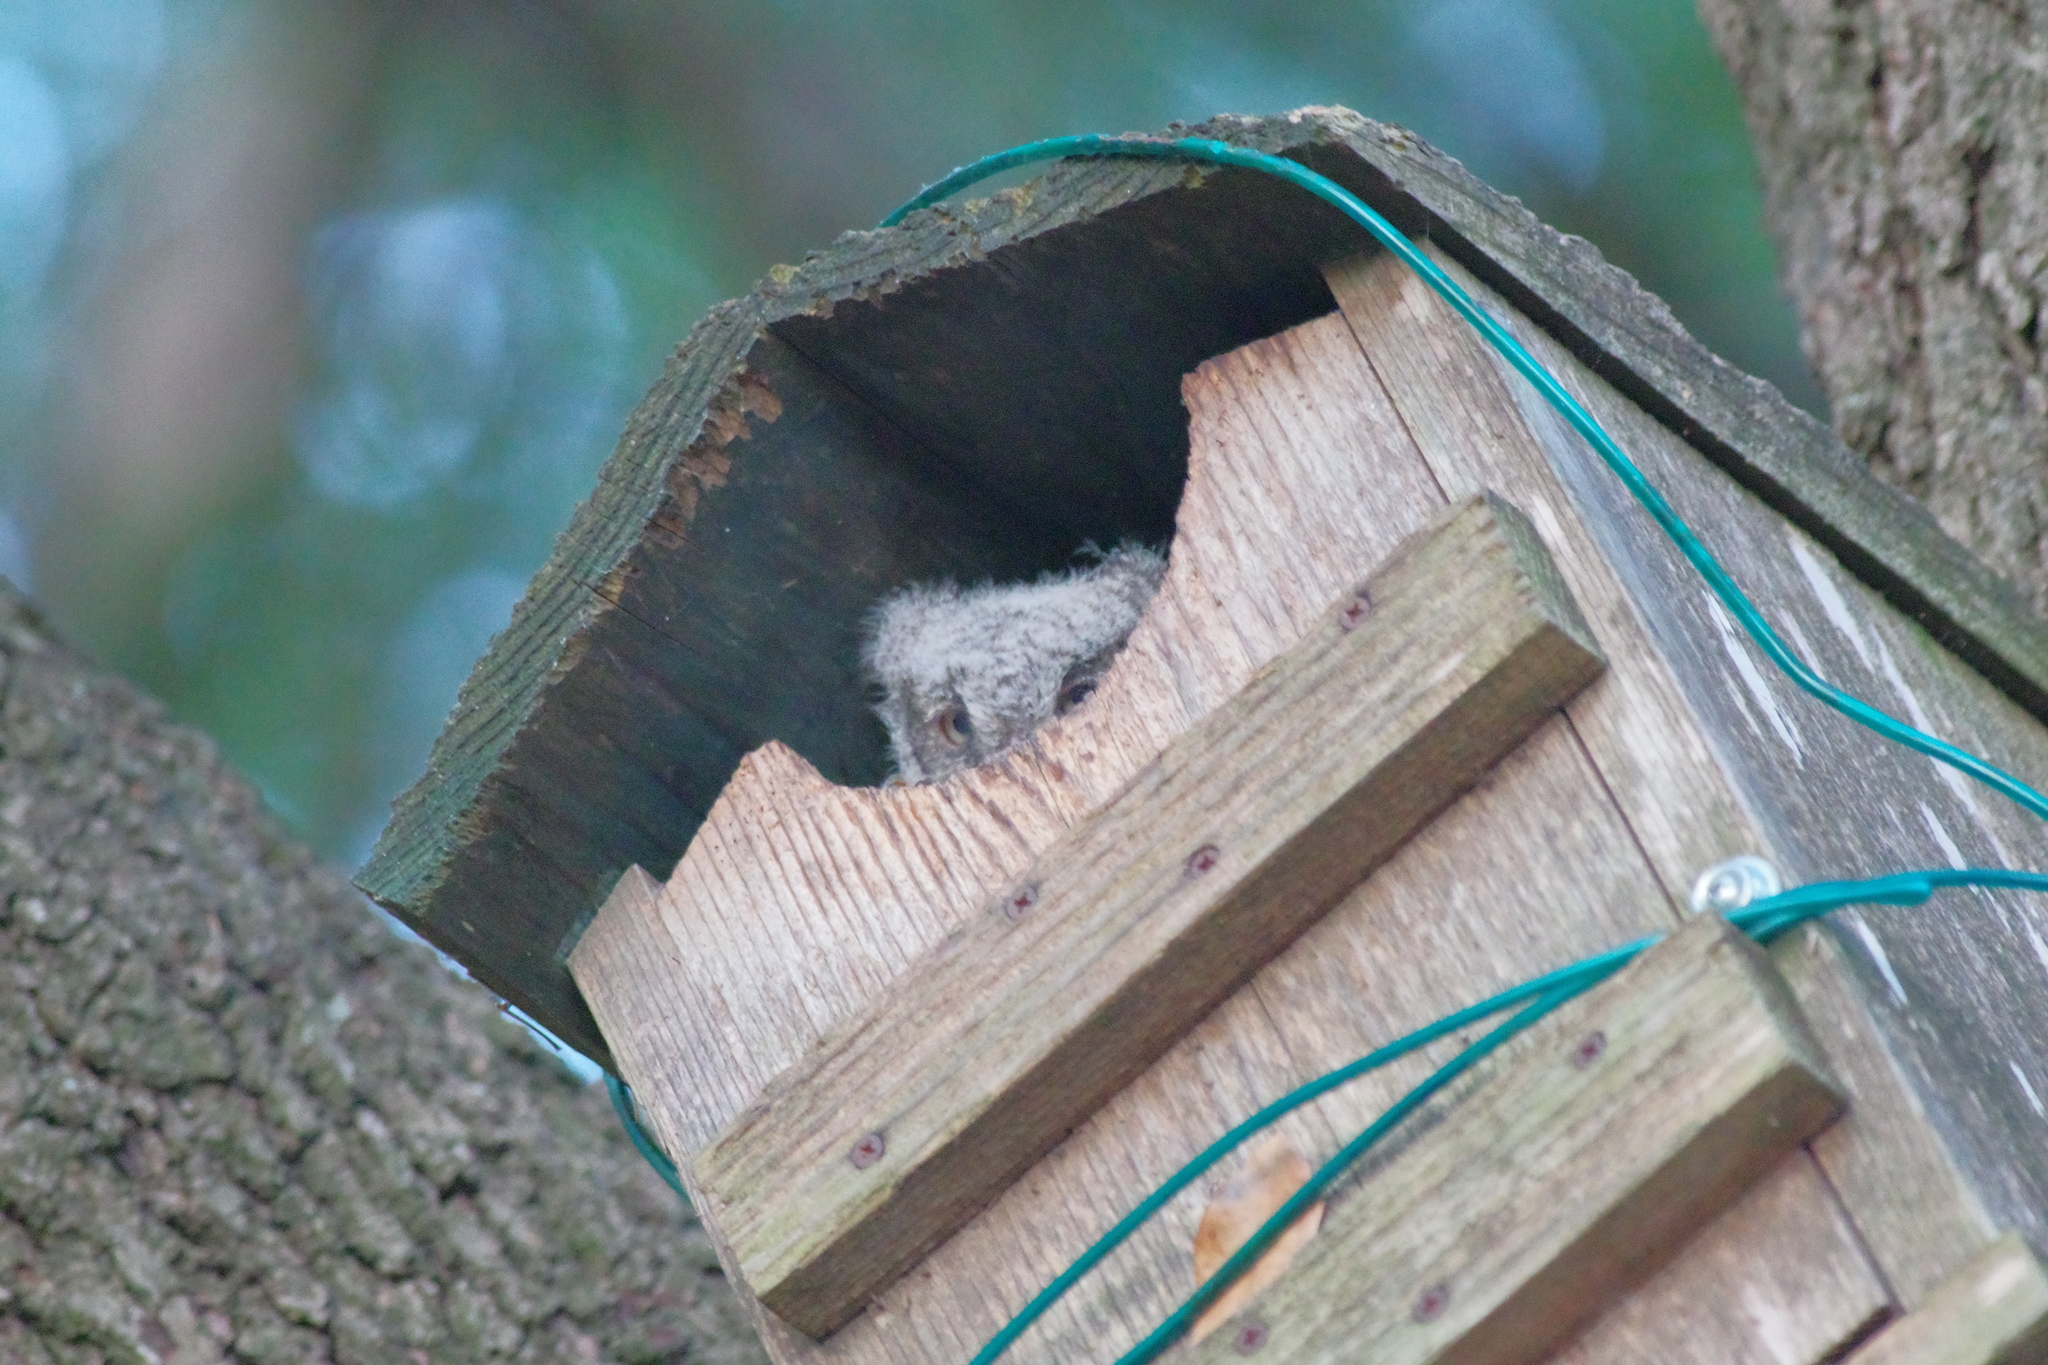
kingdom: Animalia
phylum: Chordata
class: Aves
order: Strigiformes
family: Strigidae
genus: Megascops
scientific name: Megascops asio
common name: Eastern screech-owl
